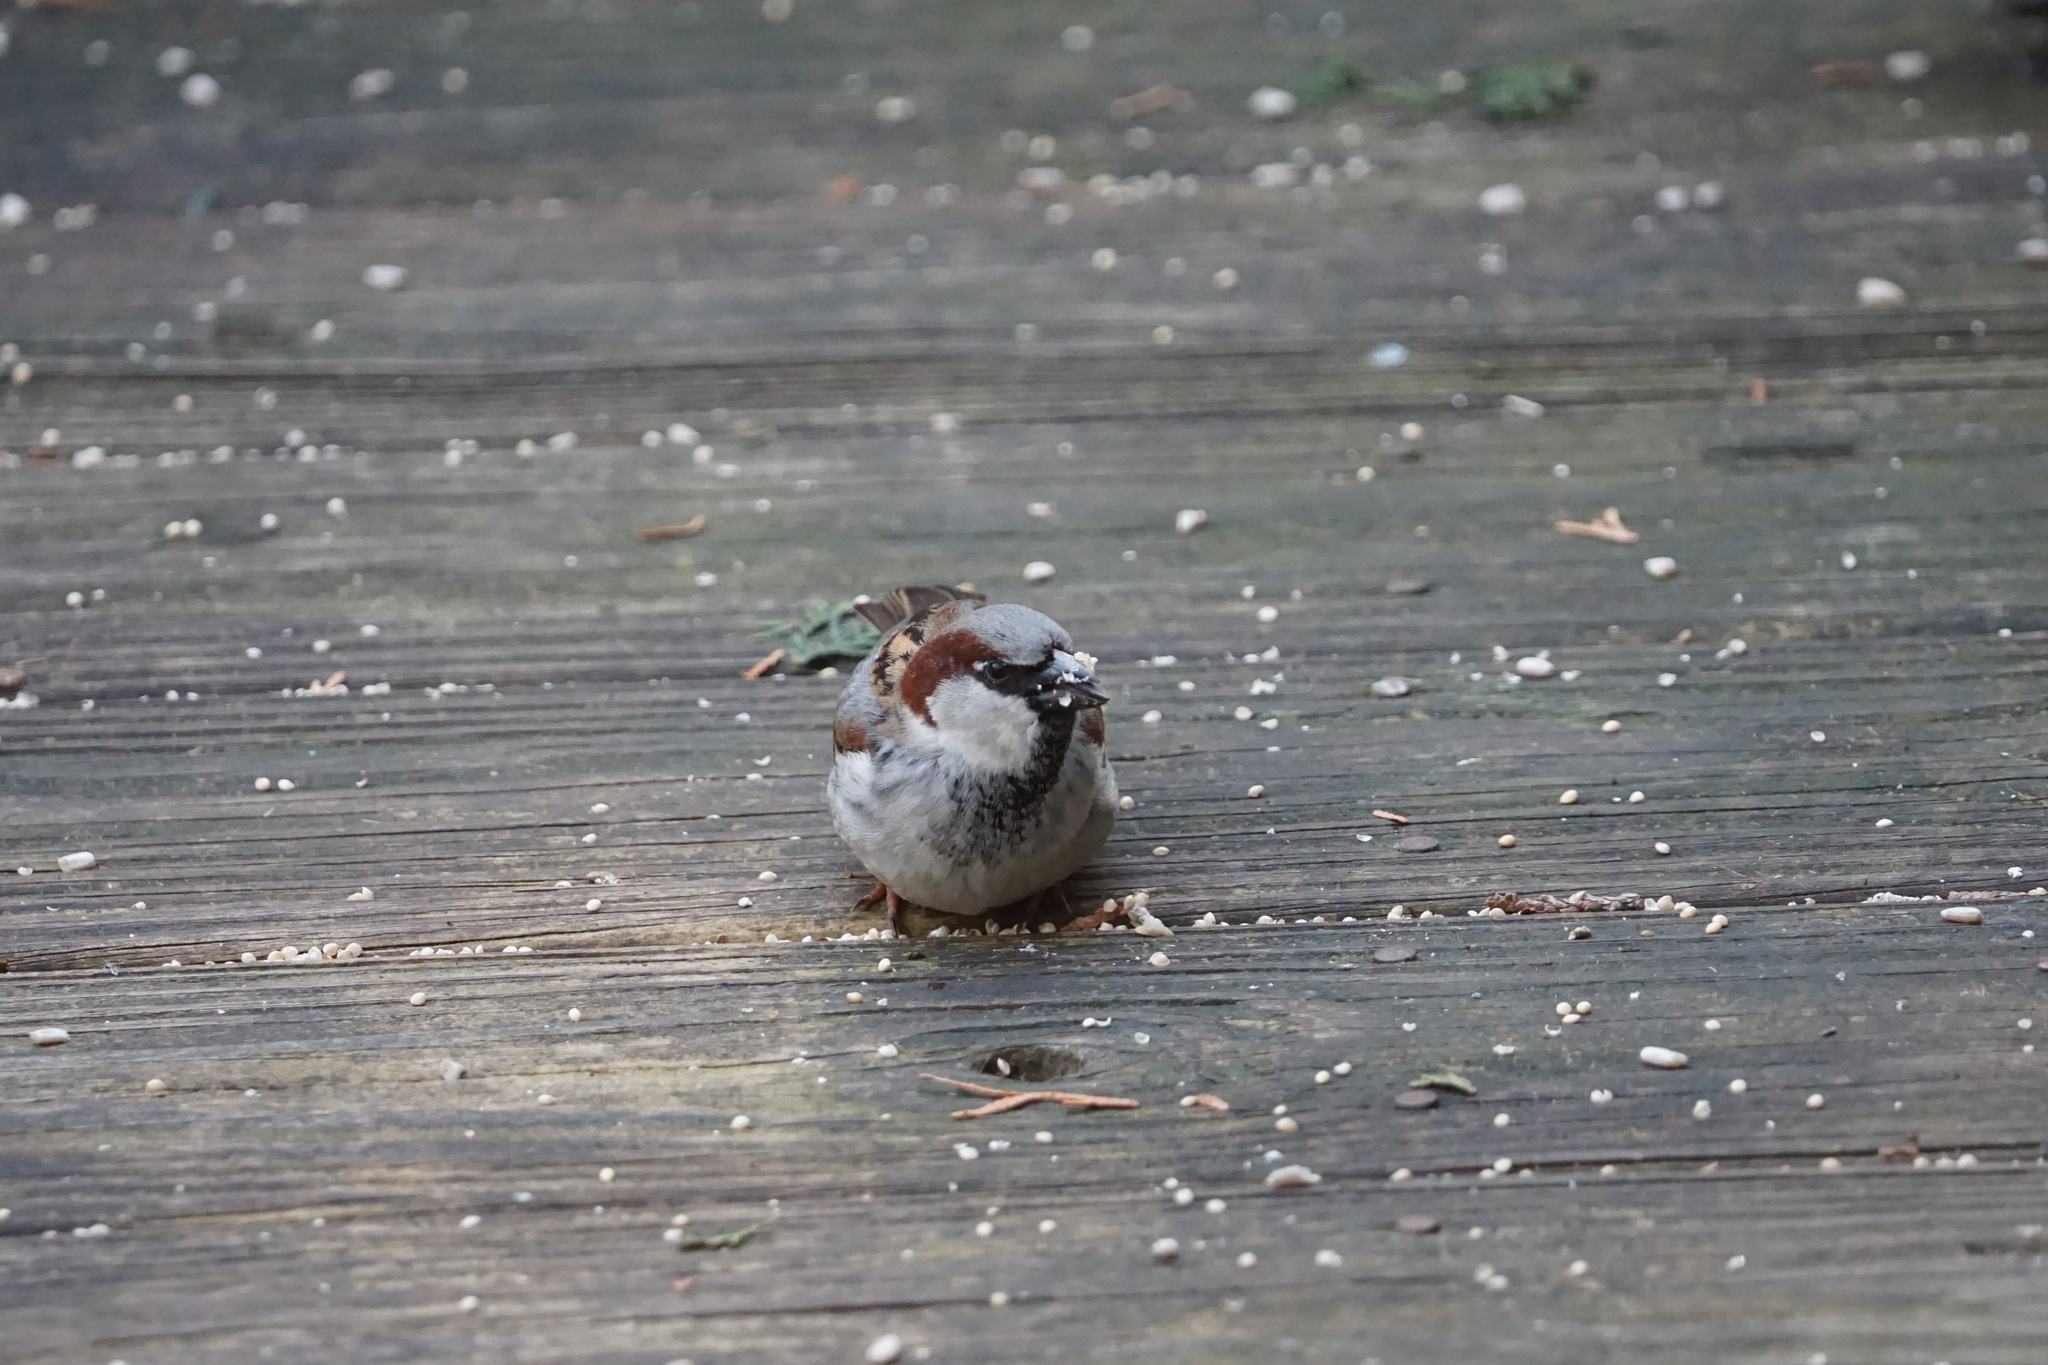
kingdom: Animalia
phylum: Chordata
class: Aves
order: Passeriformes
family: Passeridae
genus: Passer
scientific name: Passer domesticus
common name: House sparrow
